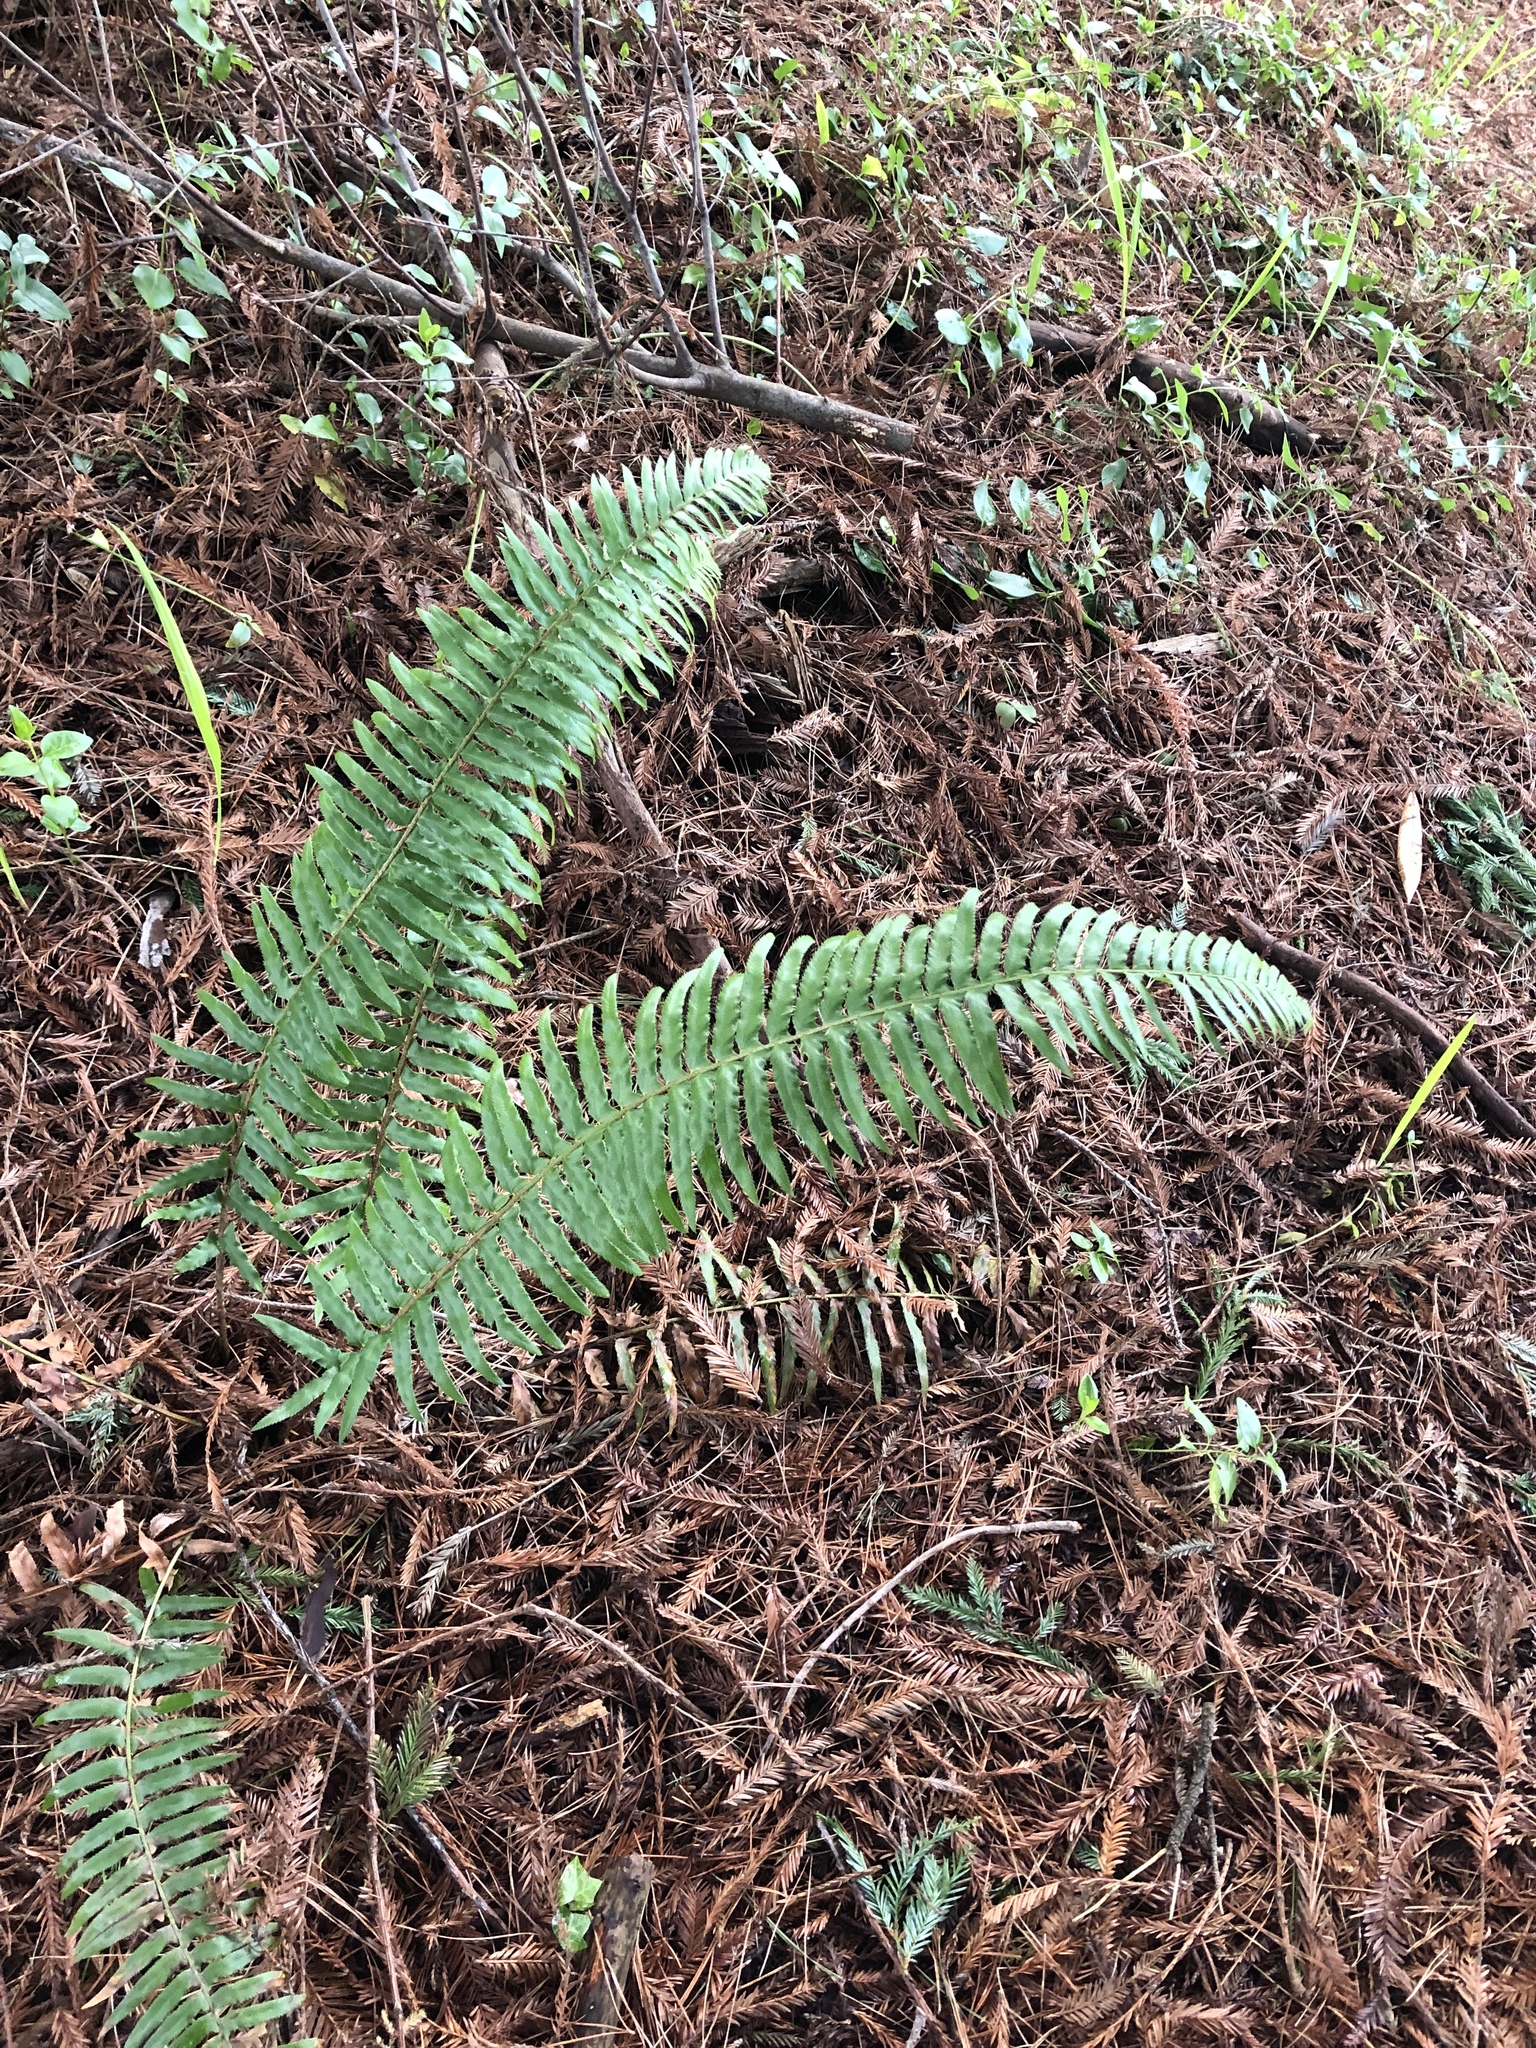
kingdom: Plantae
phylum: Tracheophyta
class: Polypodiopsida
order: Polypodiales
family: Dryopteridaceae
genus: Polystichum
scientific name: Polystichum munitum
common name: Western sword-fern
